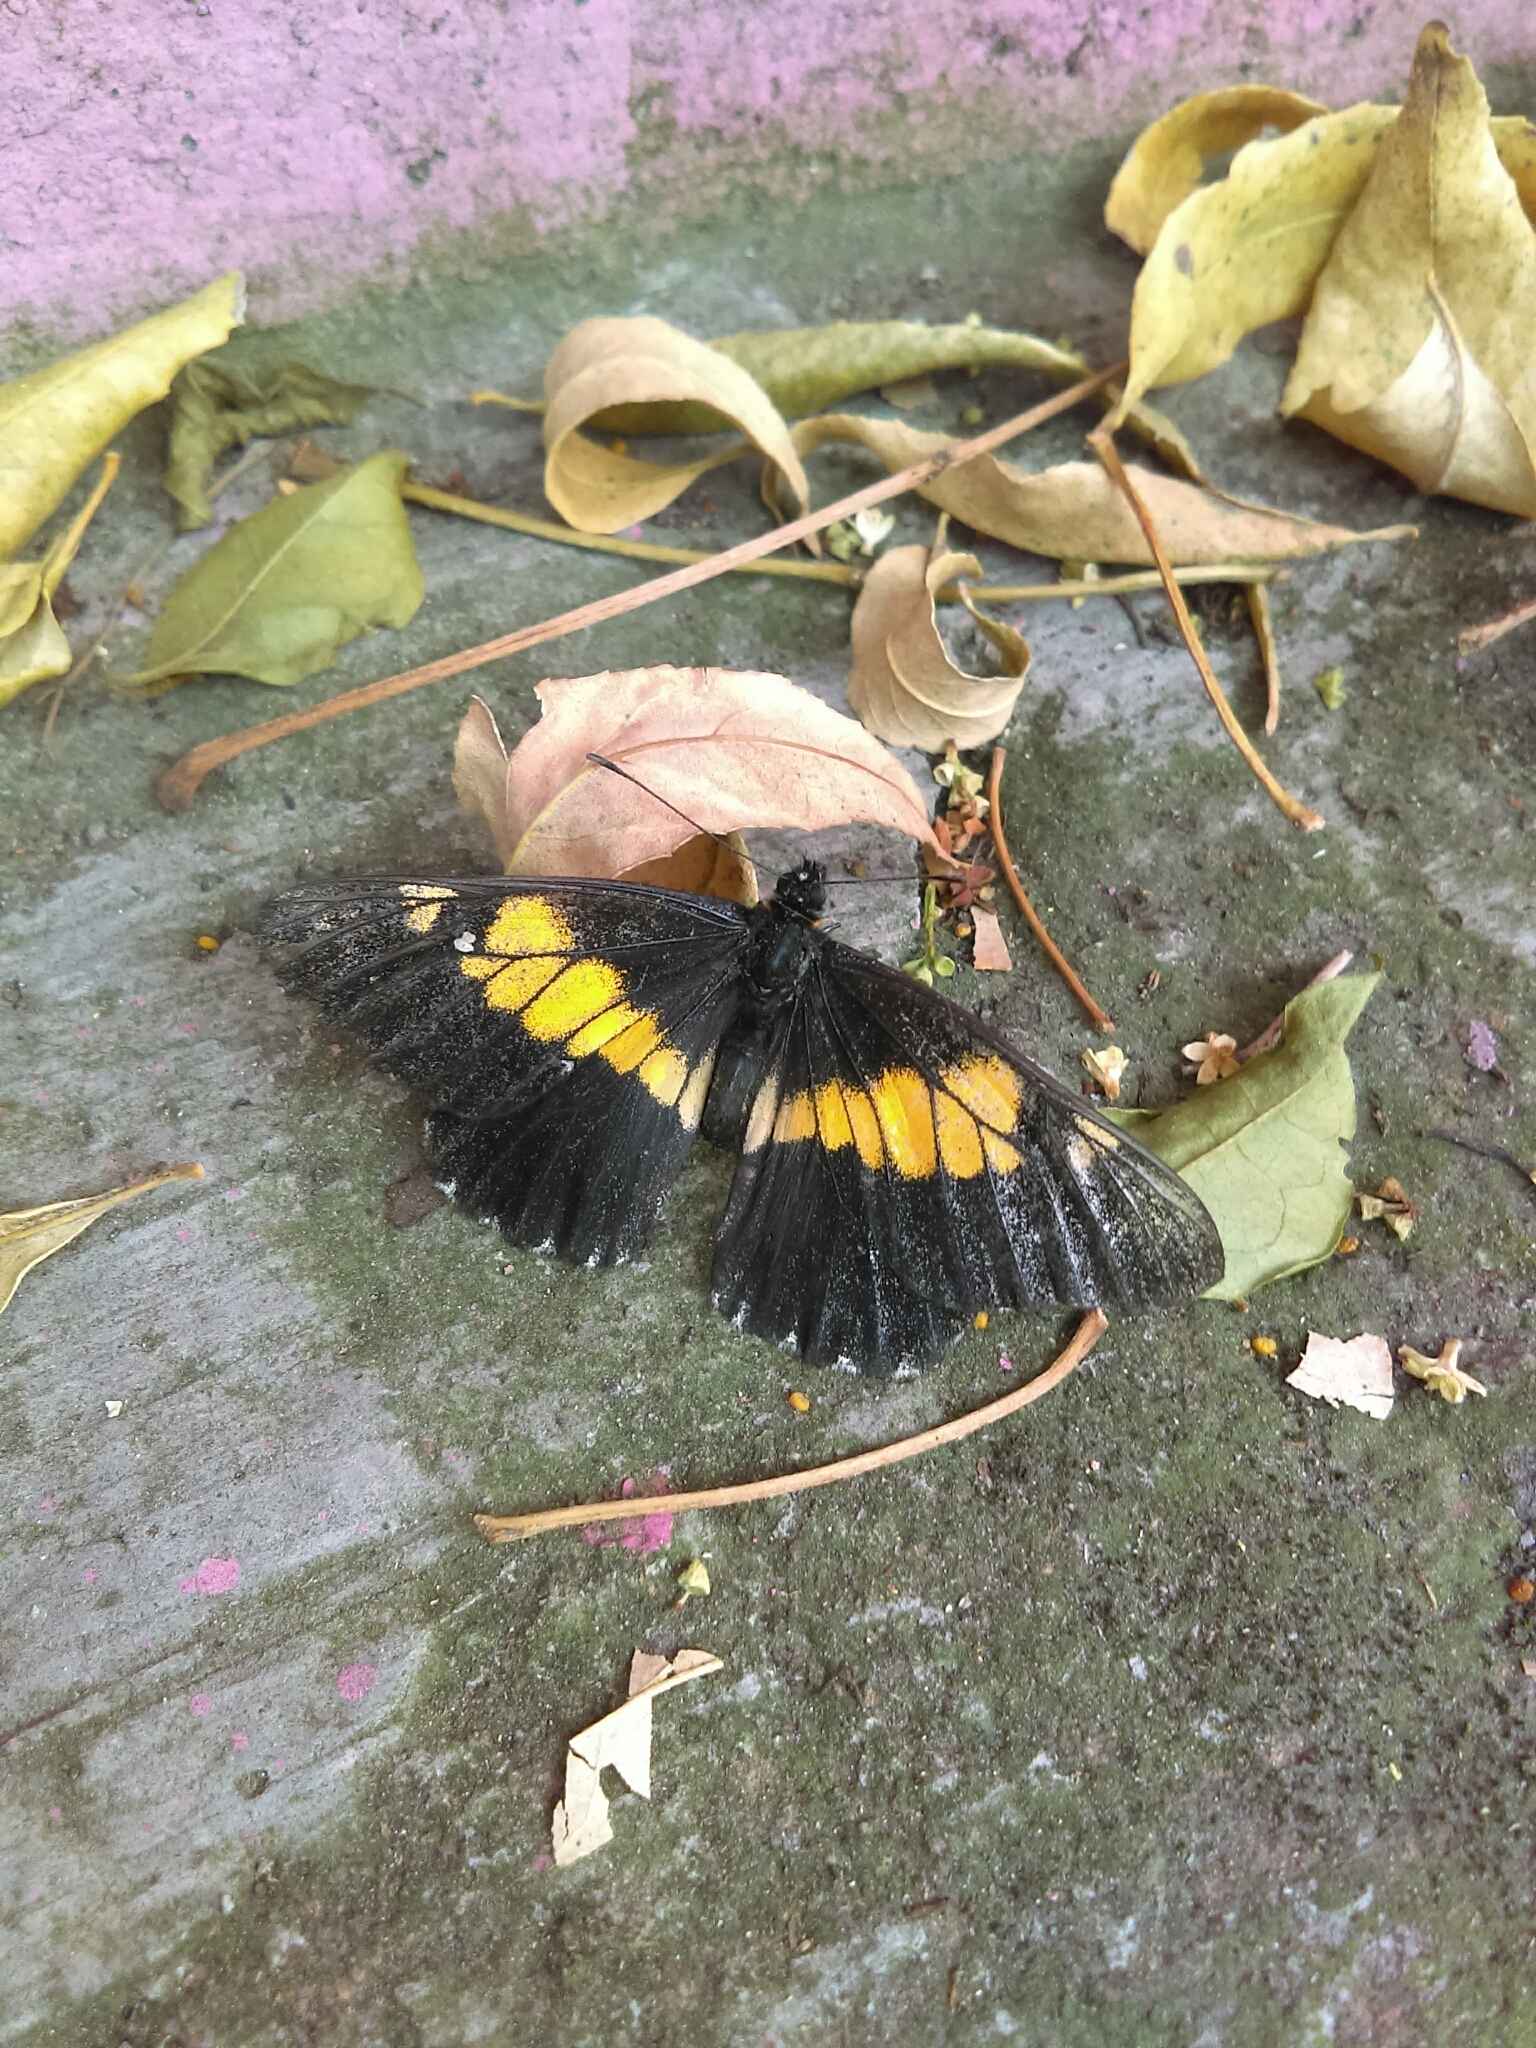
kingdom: Animalia
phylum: Arthropoda
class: Insecta
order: Lepidoptera
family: Pieridae
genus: Archonias
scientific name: Archonias teutila
